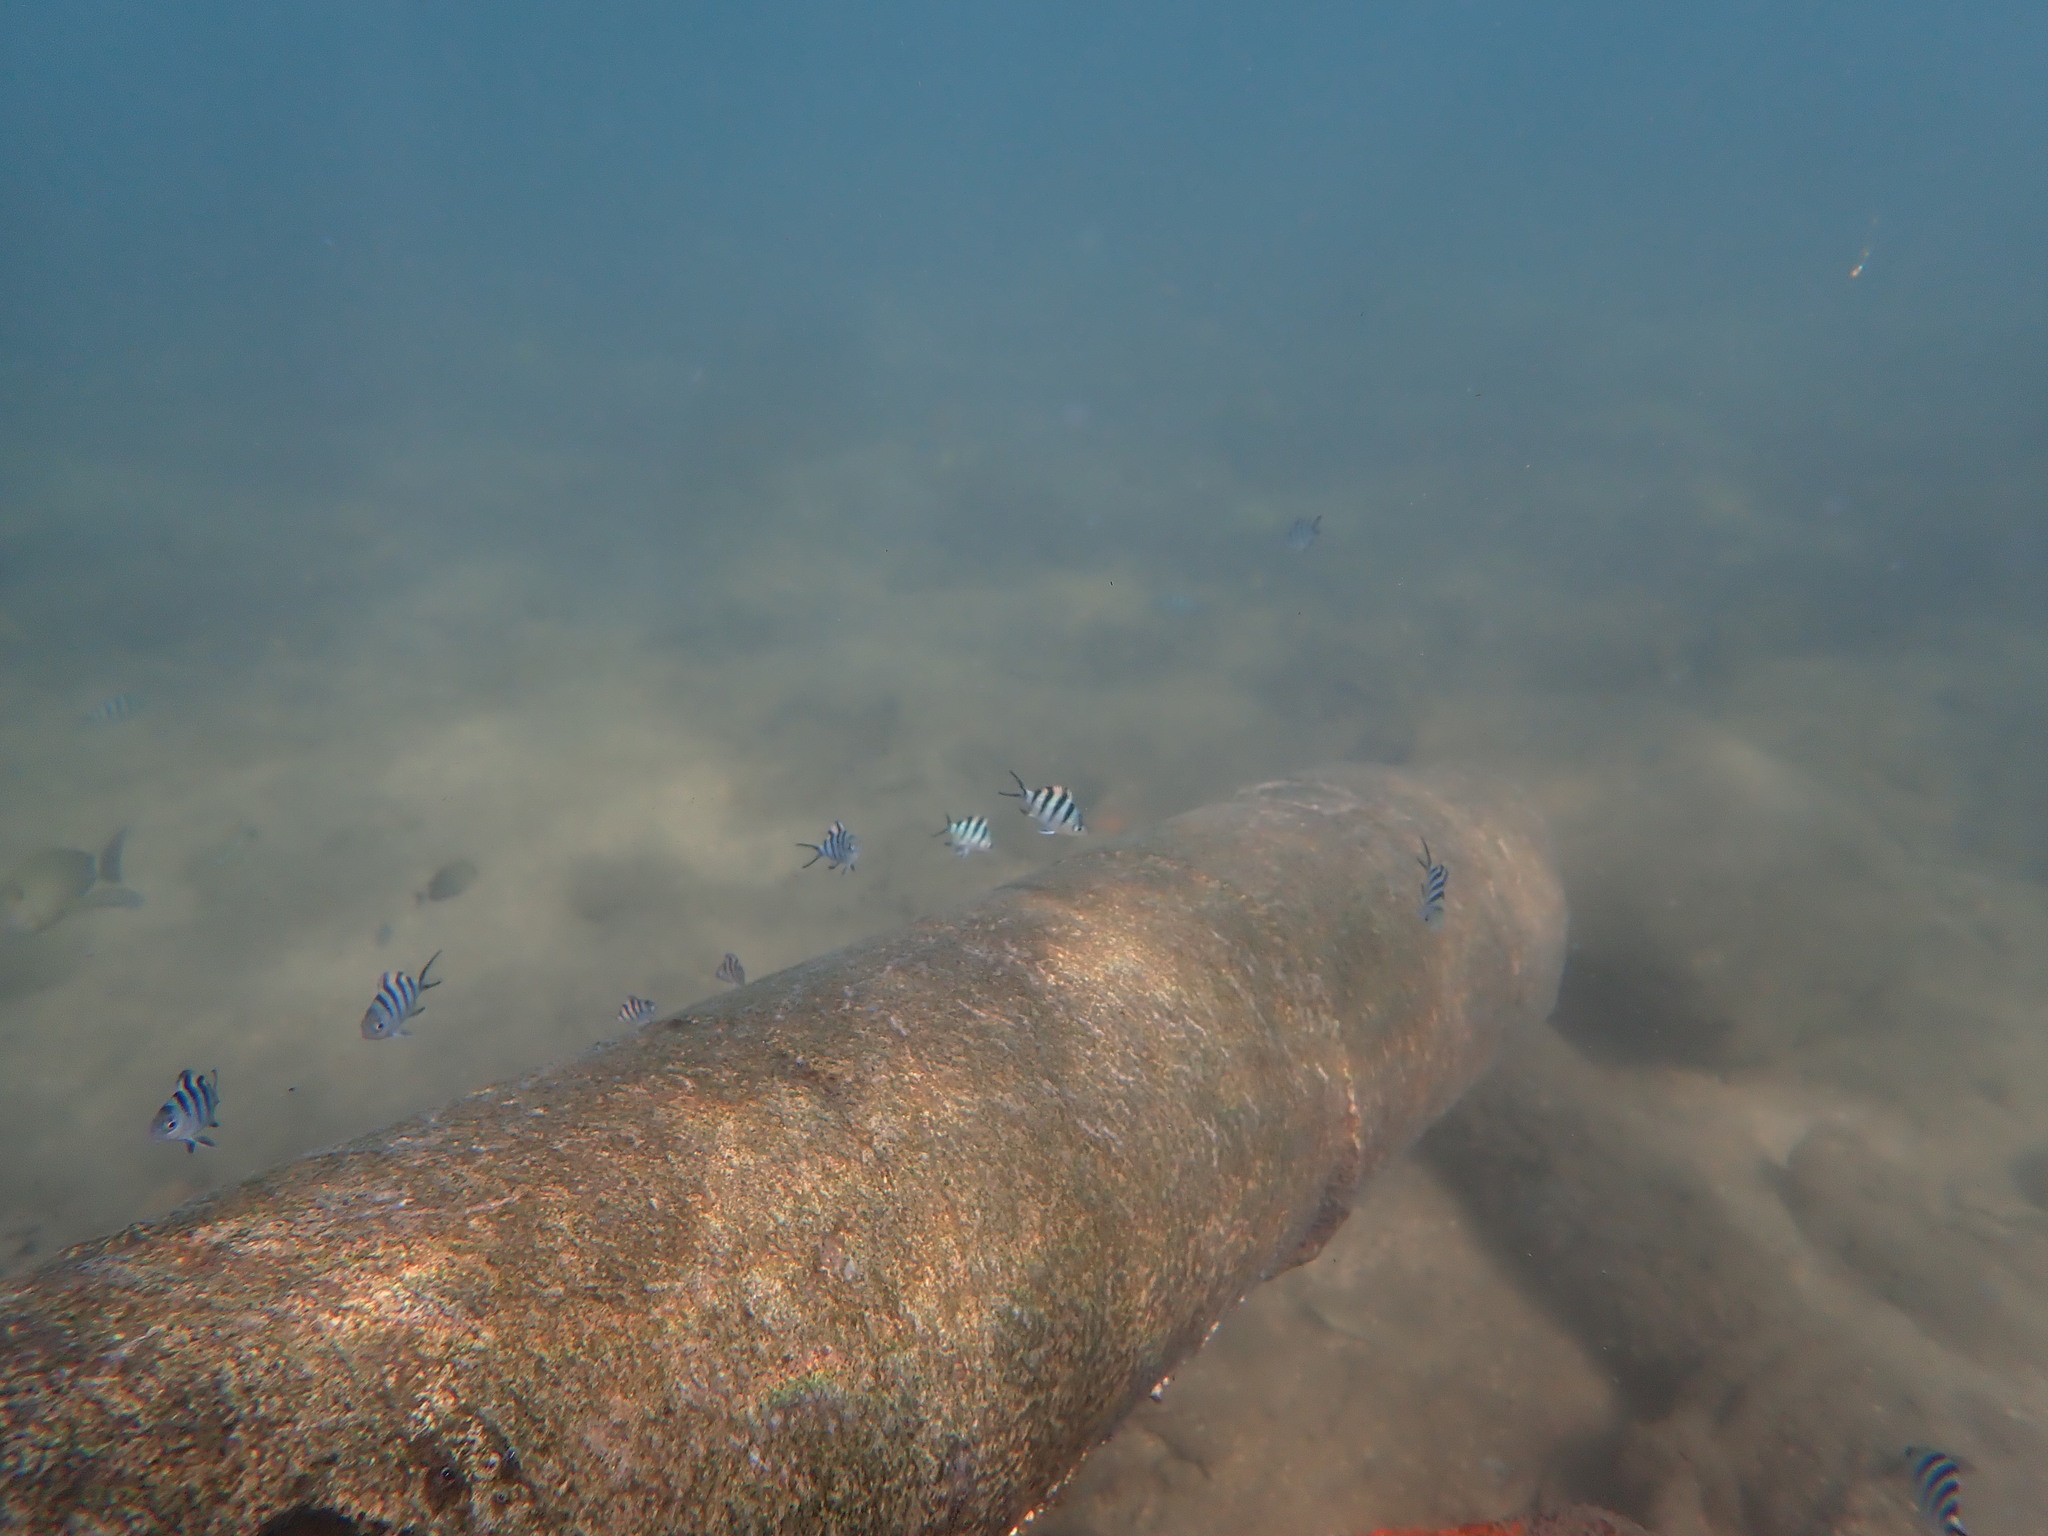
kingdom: Animalia
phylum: Chordata
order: Perciformes
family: Pomacentridae
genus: Abudefduf
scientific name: Abudefduf sexfasciatus
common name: Scissortail sergeant
